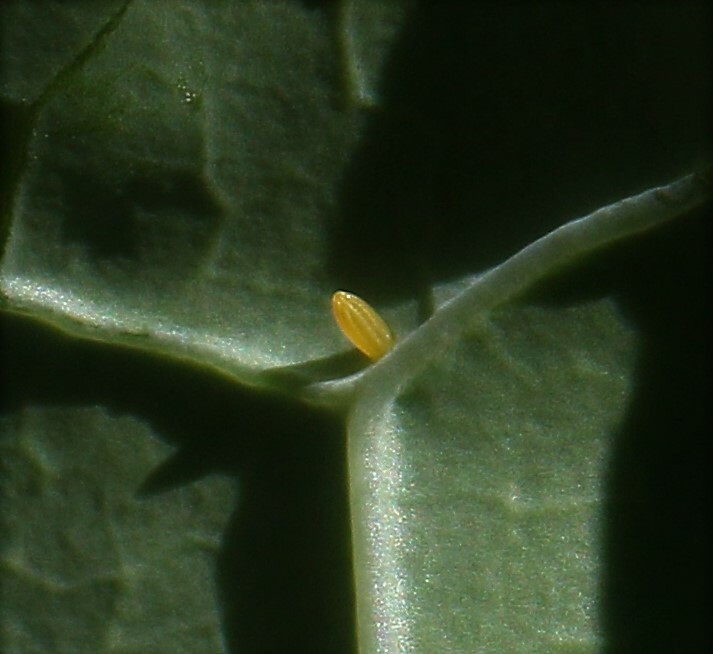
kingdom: Animalia
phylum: Arthropoda
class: Insecta
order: Lepidoptera
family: Pieridae
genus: Pieris
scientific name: Pieris rapae
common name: Small white
